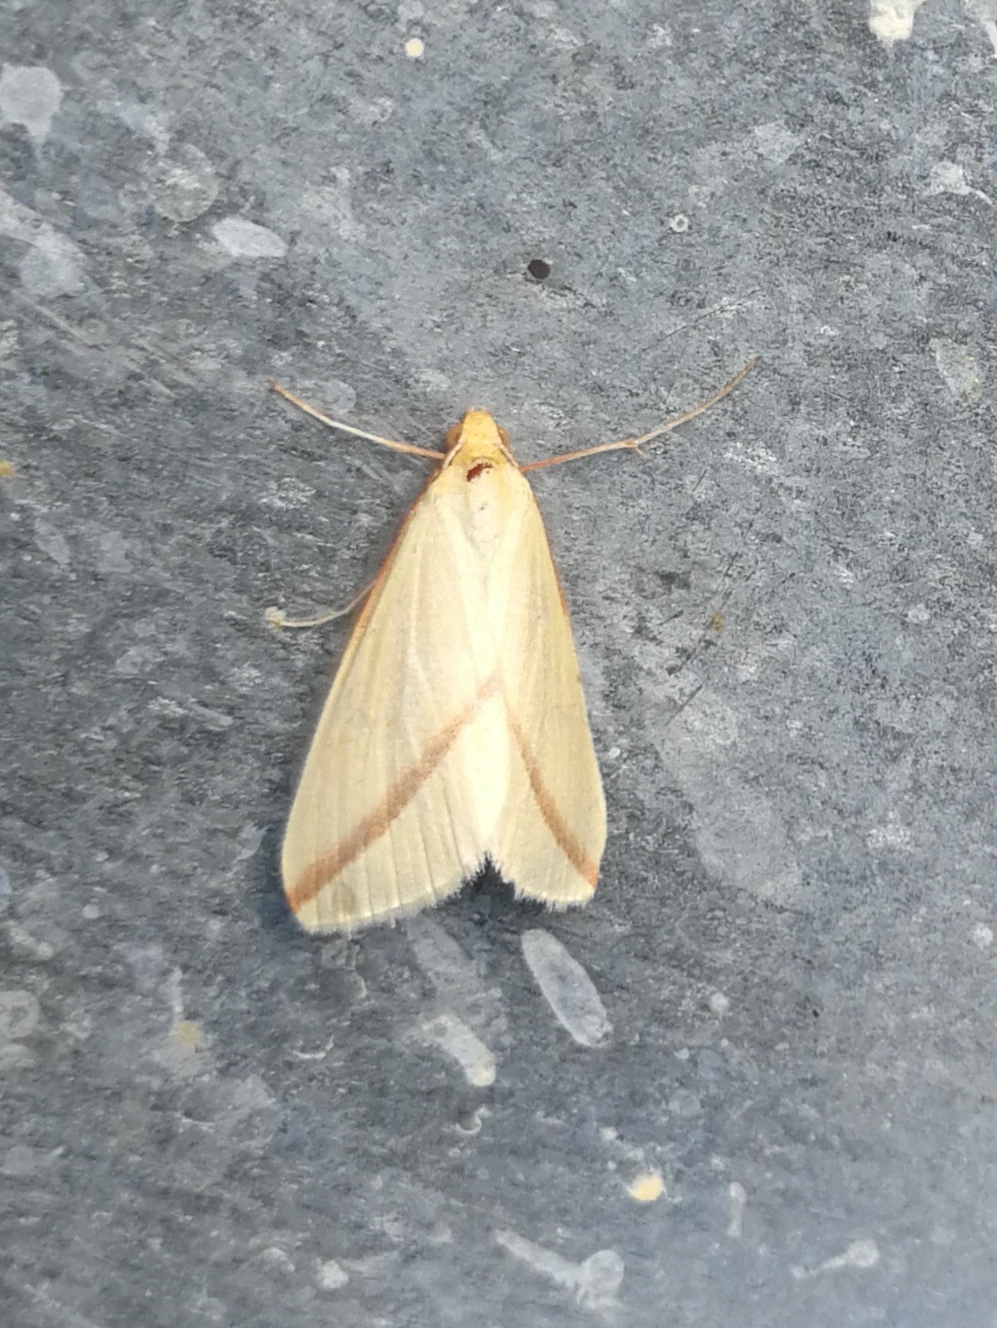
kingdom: Animalia
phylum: Arthropoda
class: Insecta
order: Lepidoptera
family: Geometridae
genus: Rhodometra
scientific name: Rhodometra sacraria
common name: Vestal
